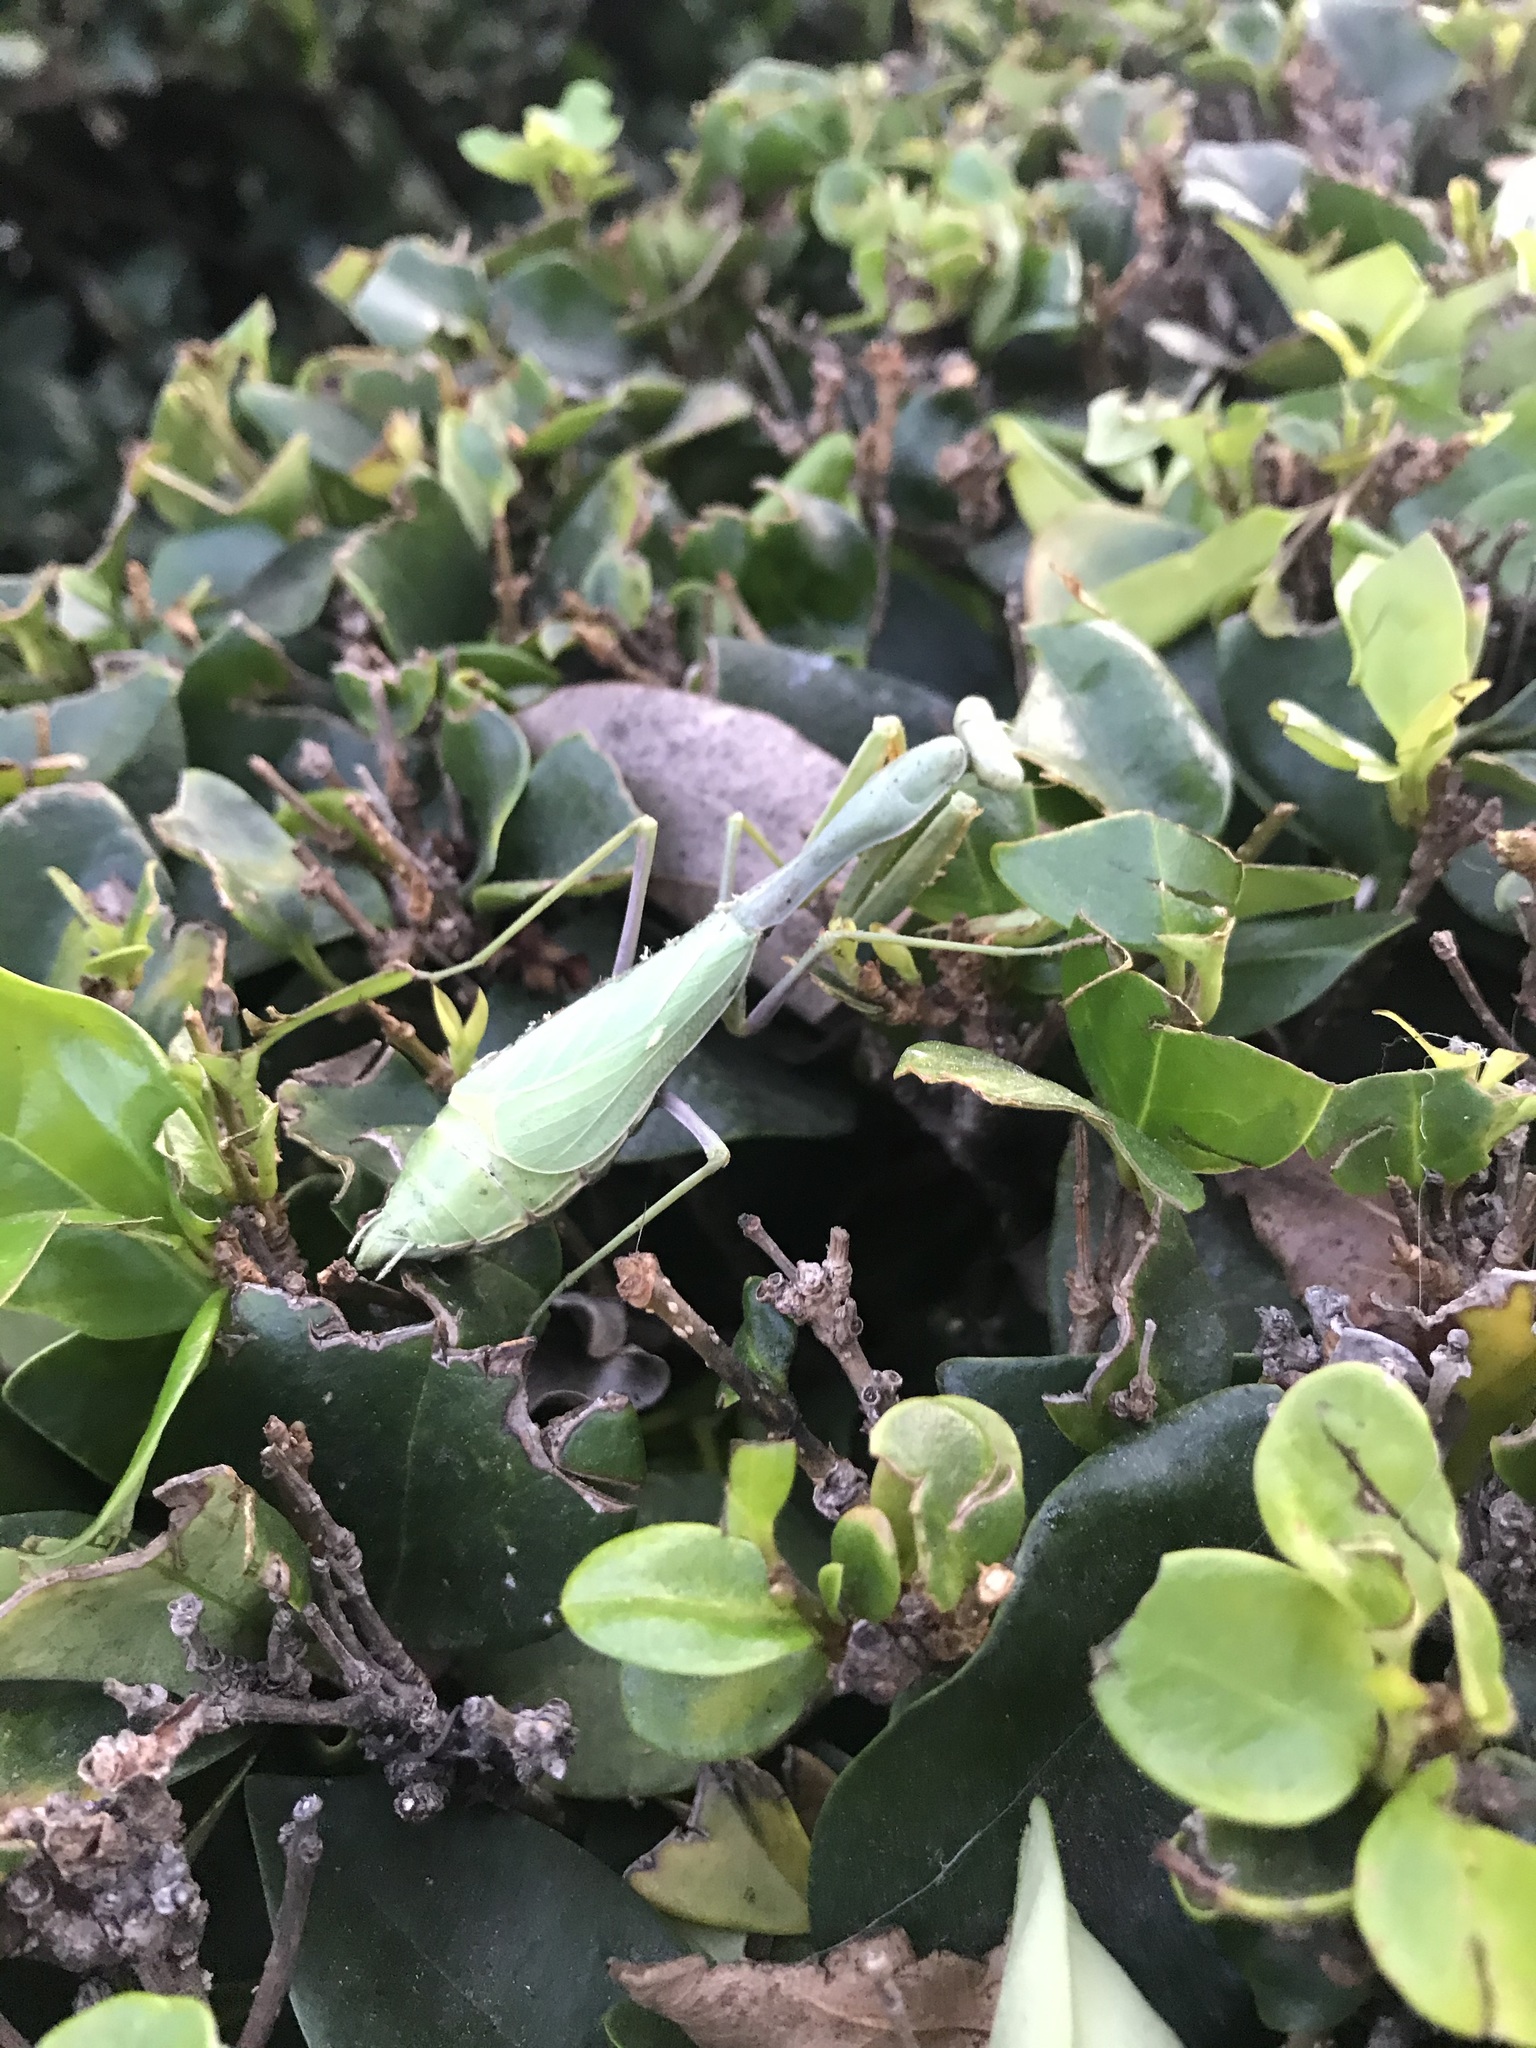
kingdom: Animalia
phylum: Arthropoda
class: Insecta
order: Mantodea
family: Mantidae
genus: Stagmomantis
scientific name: Stagmomantis limbata
